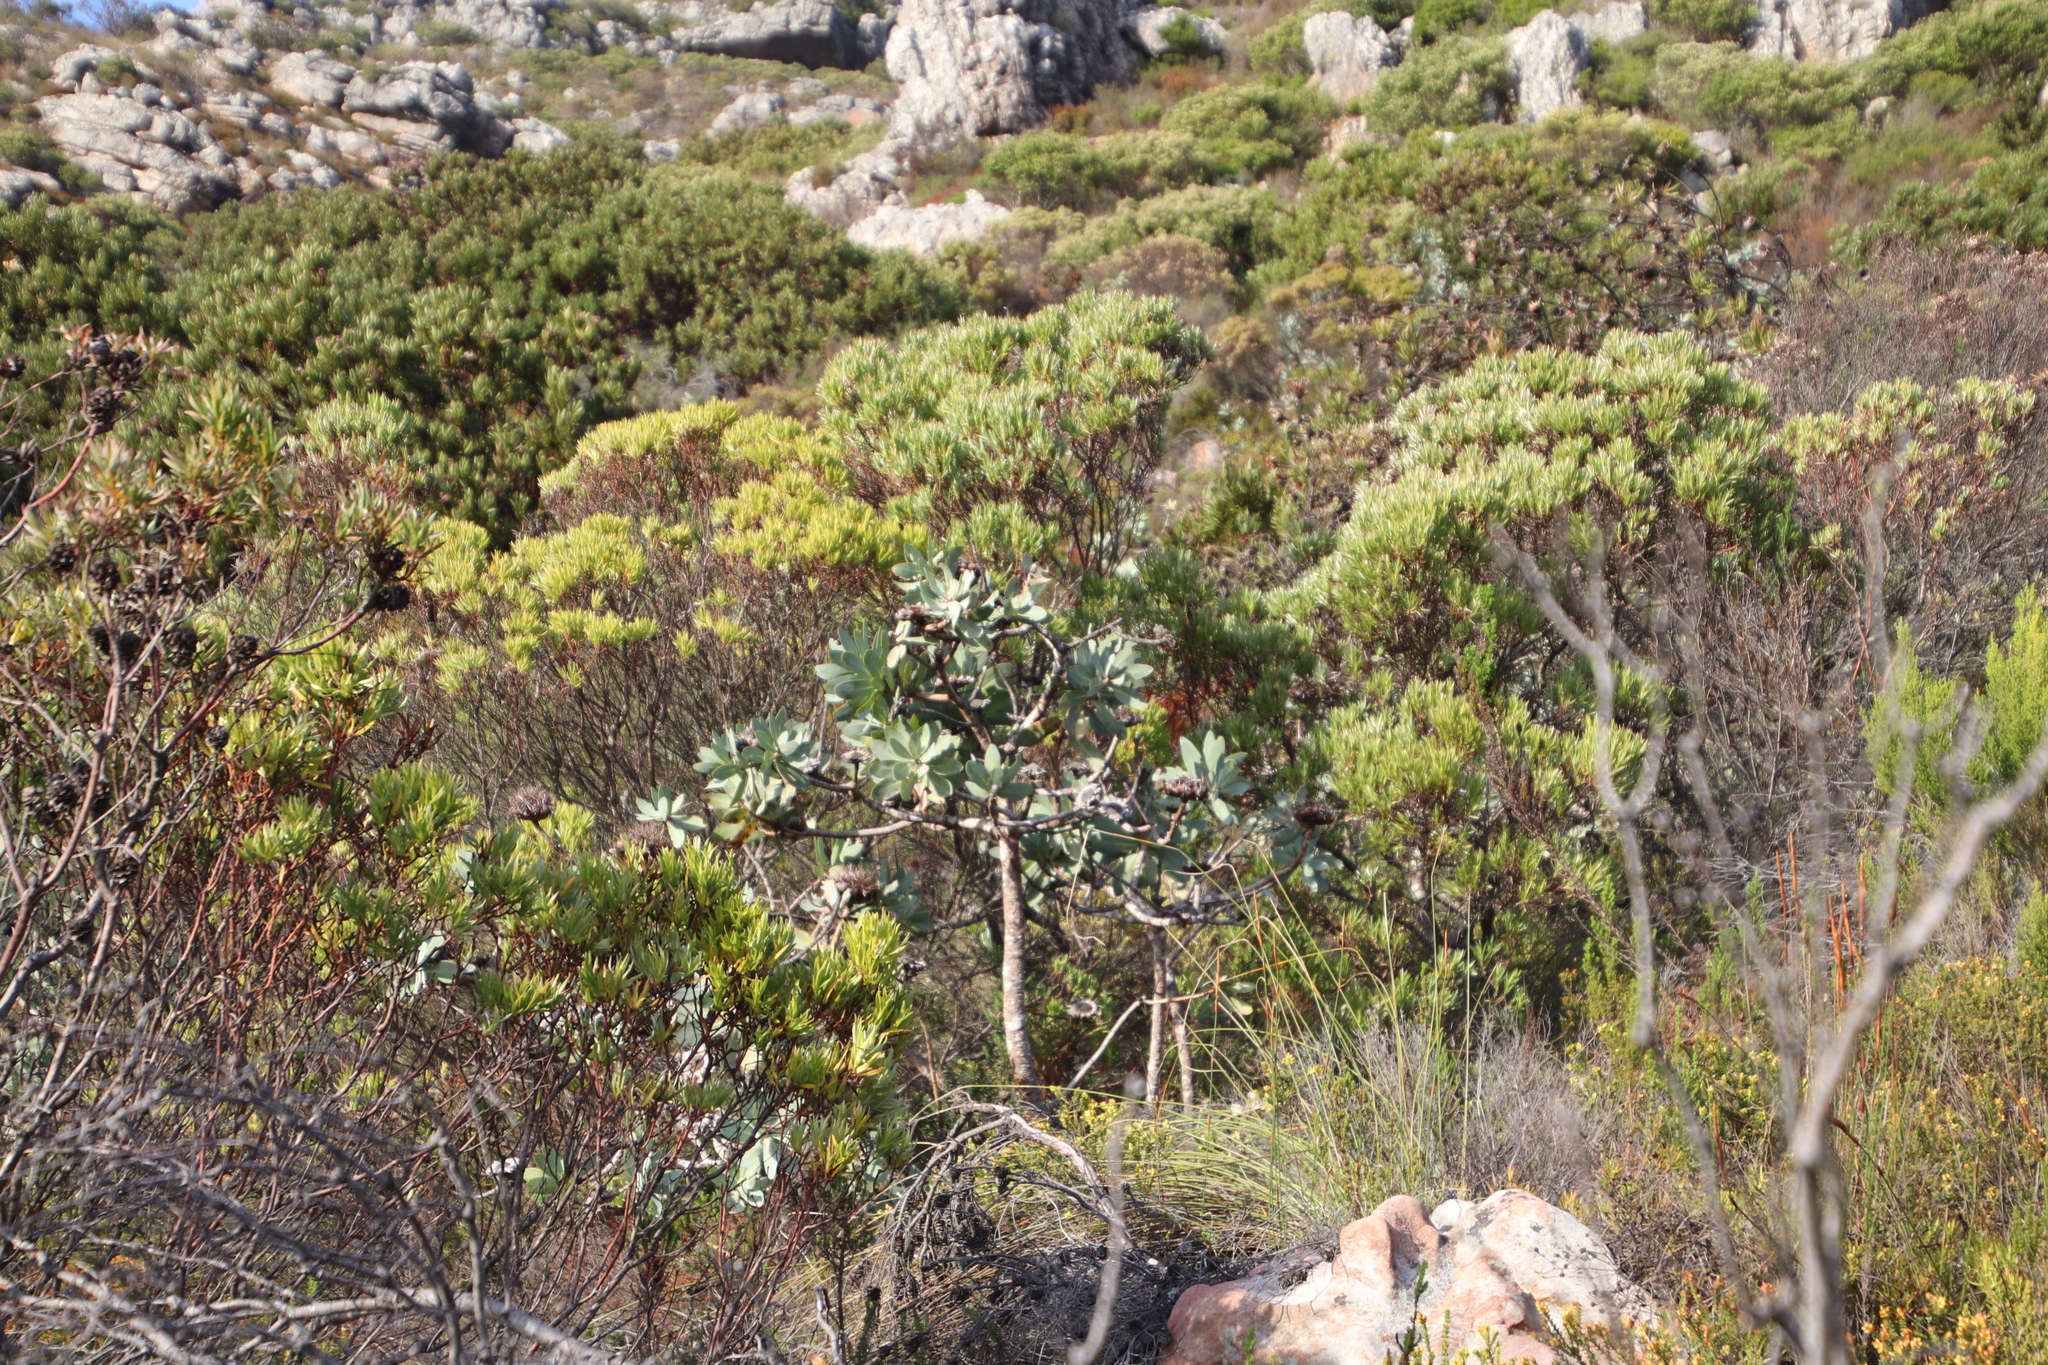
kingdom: Plantae
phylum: Tracheophyta
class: Magnoliopsida
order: Proteales
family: Proteaceae
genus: Protea
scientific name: Protea nitida
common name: Tree protea
